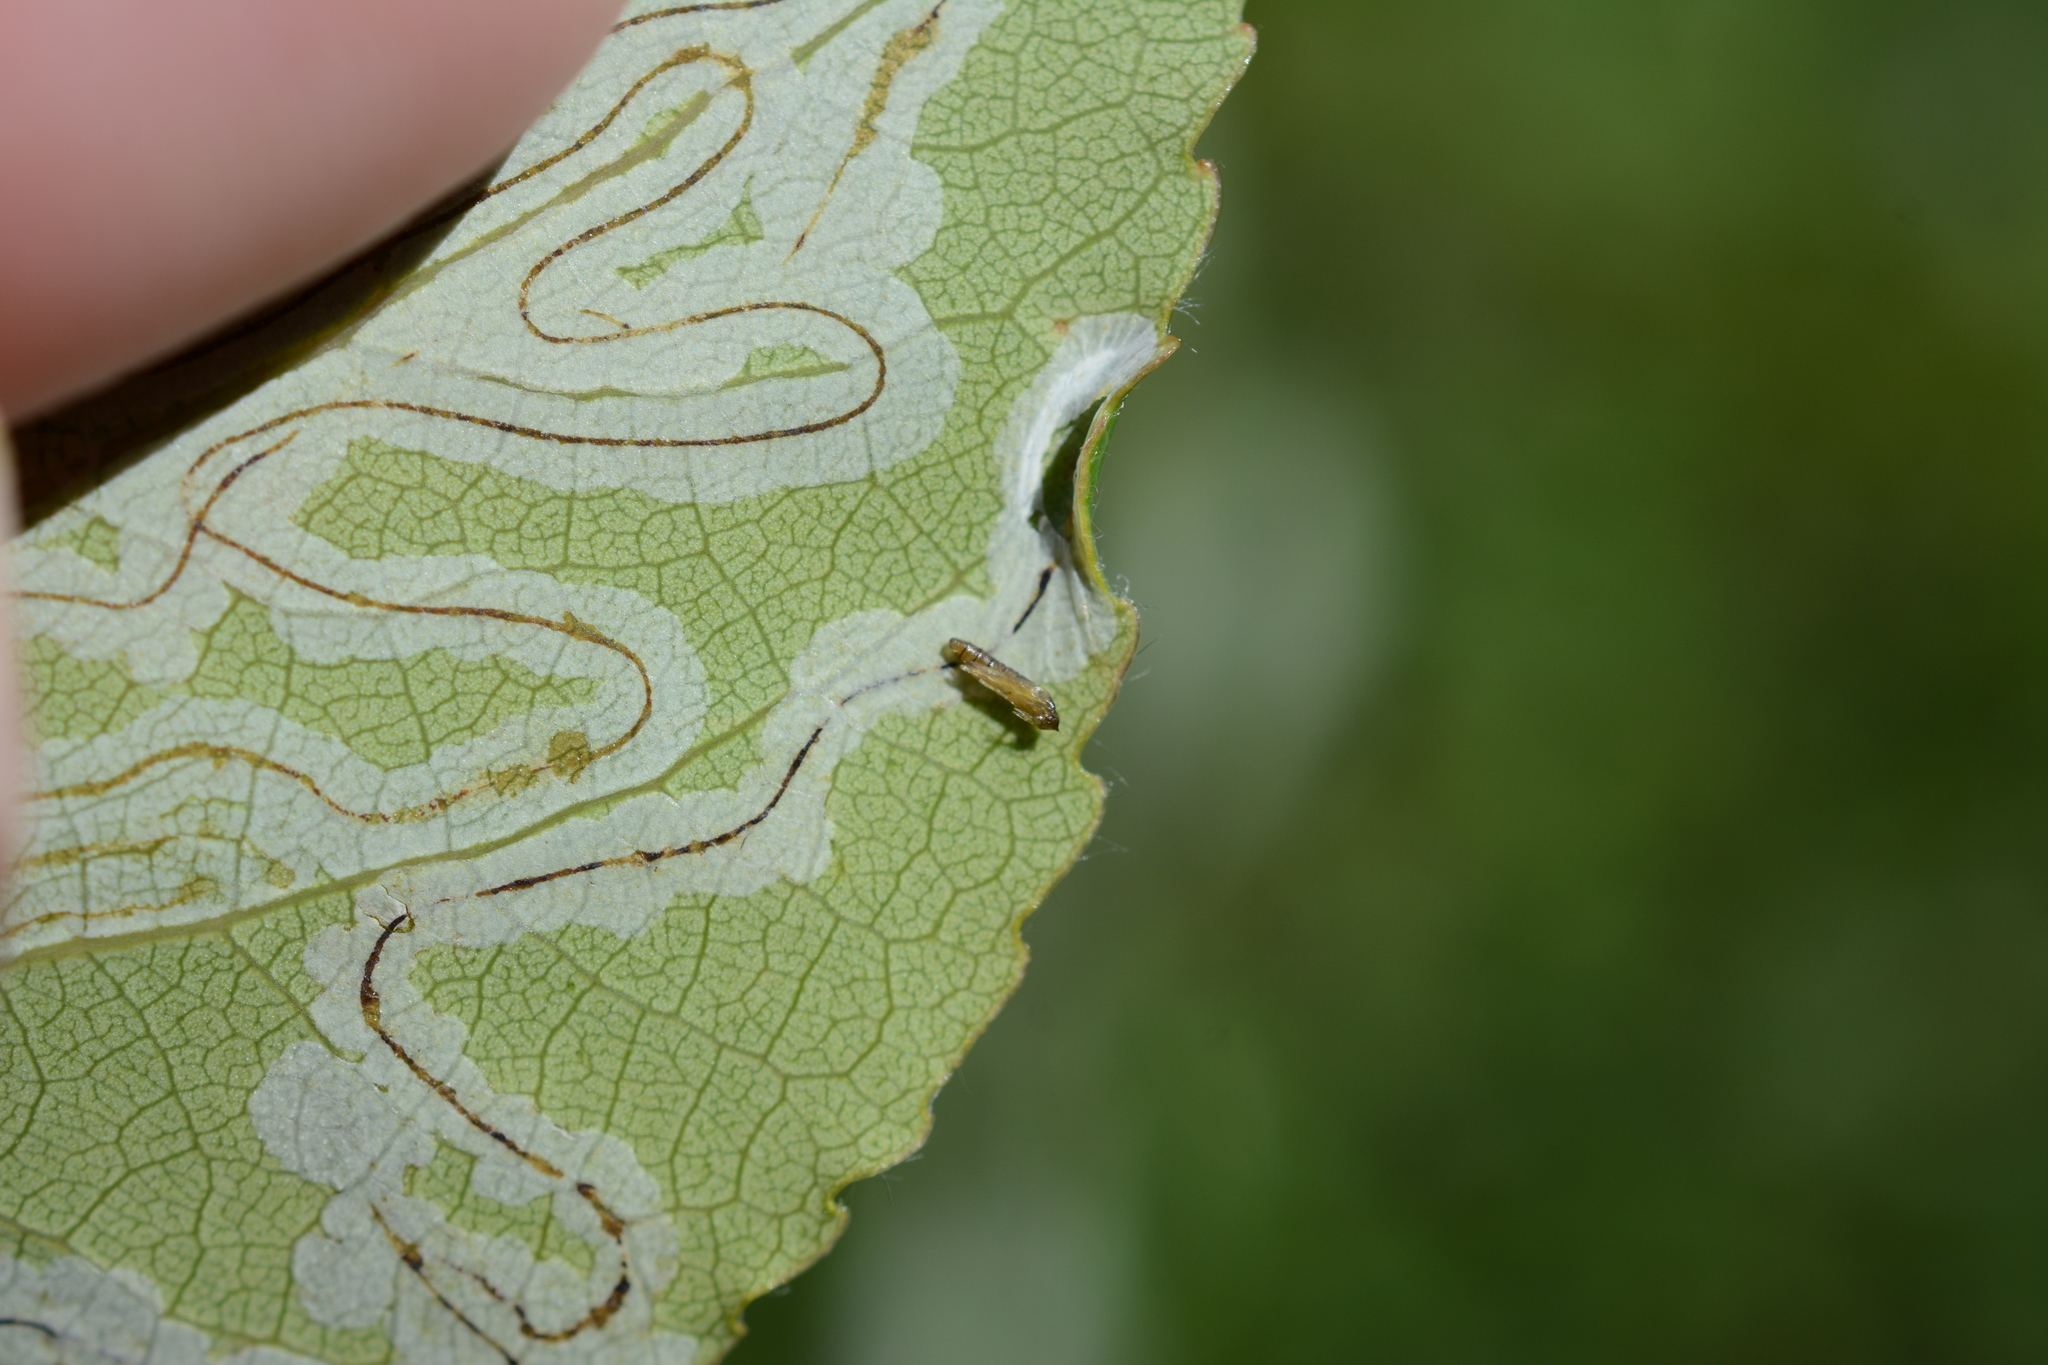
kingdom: Animalia
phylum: Arthropoda
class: Insecta
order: Lepidoptera
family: Gracillariidae
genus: Phyllocnistis
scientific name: Phyllocnistis populiella
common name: Aspen serpentine leafminer moth
